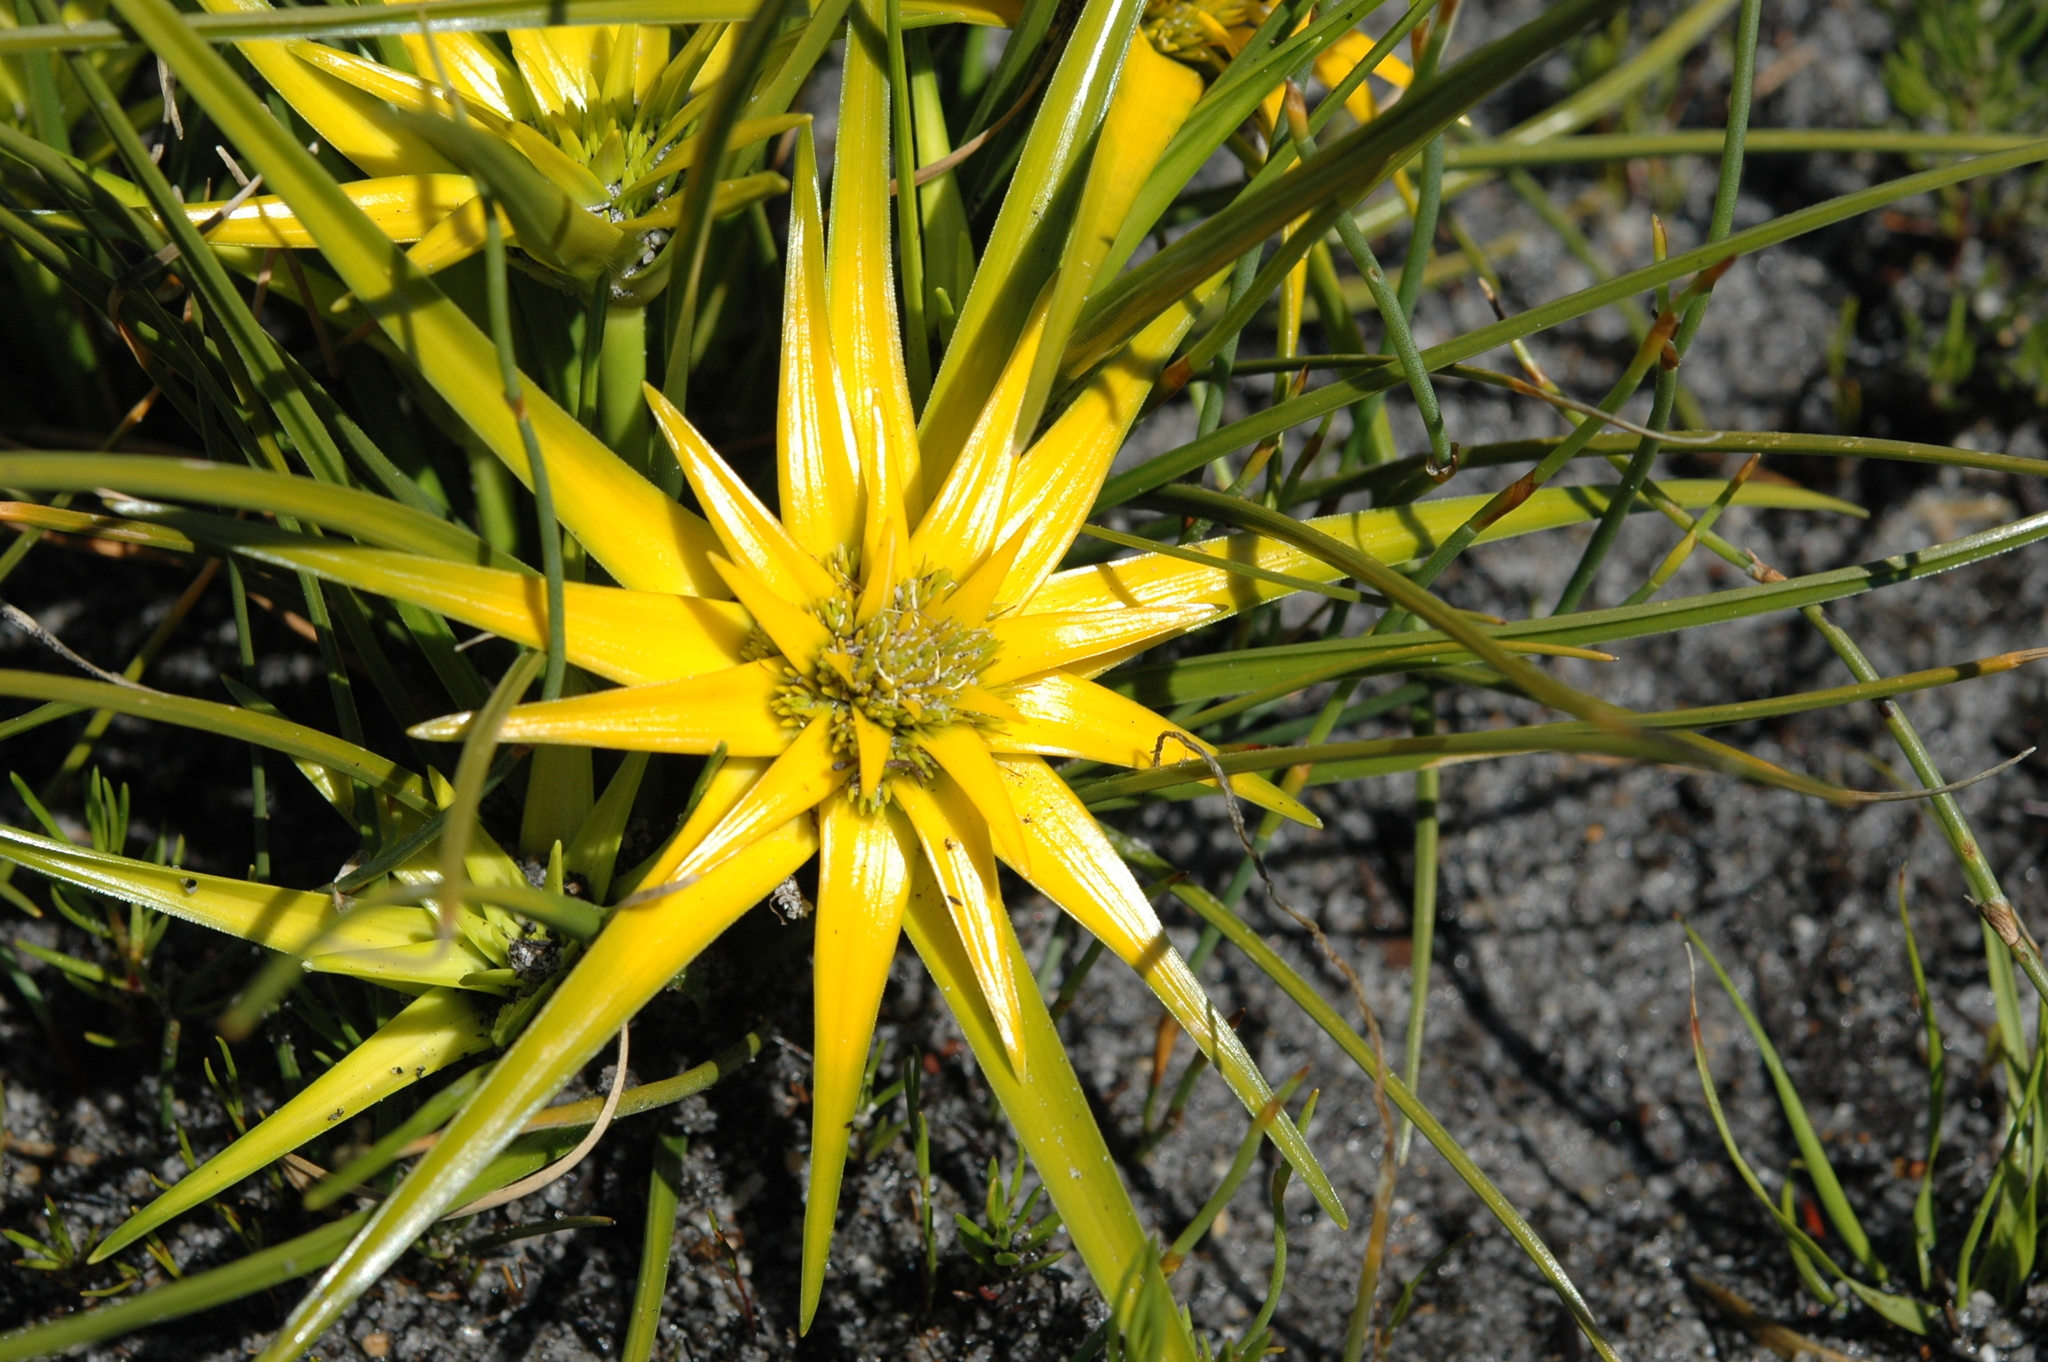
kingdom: Plantae
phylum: Tracheophyta
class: Liliopsida
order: Poales
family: Cyperaceae
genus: Ficinia
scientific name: Ficinia radiata
